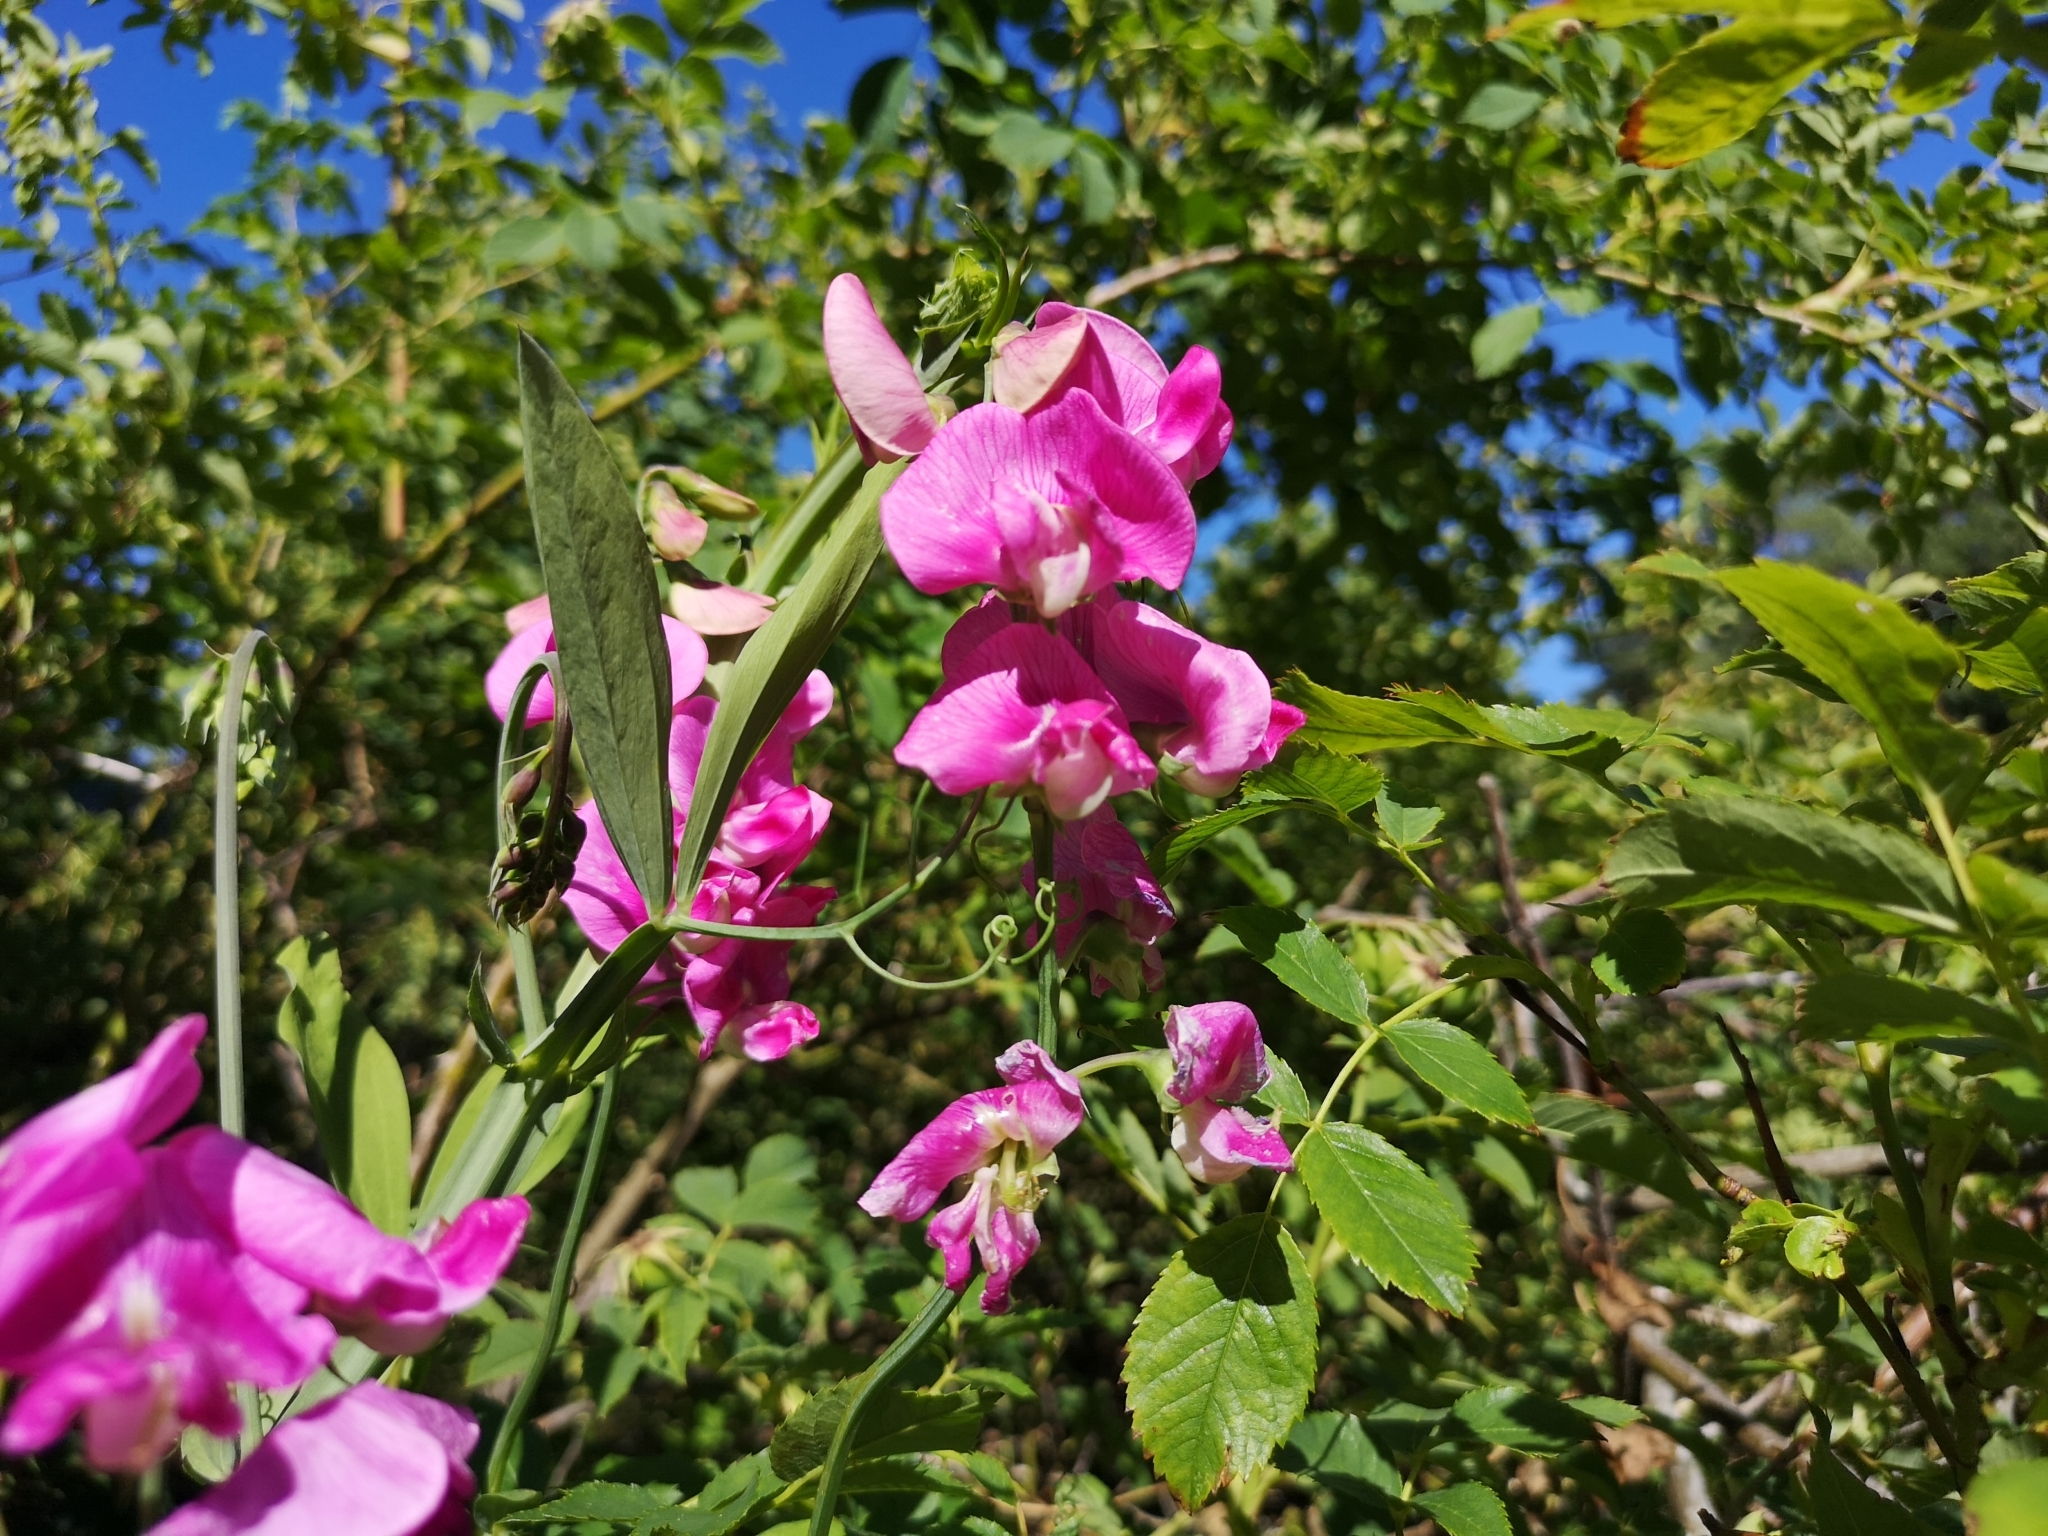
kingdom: Plantae
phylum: Tracheophyta
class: Magnoliopsida
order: Fabales
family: Fabaceae
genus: Lathyrus
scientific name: Lathyrus latifolius
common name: Perennial pea
